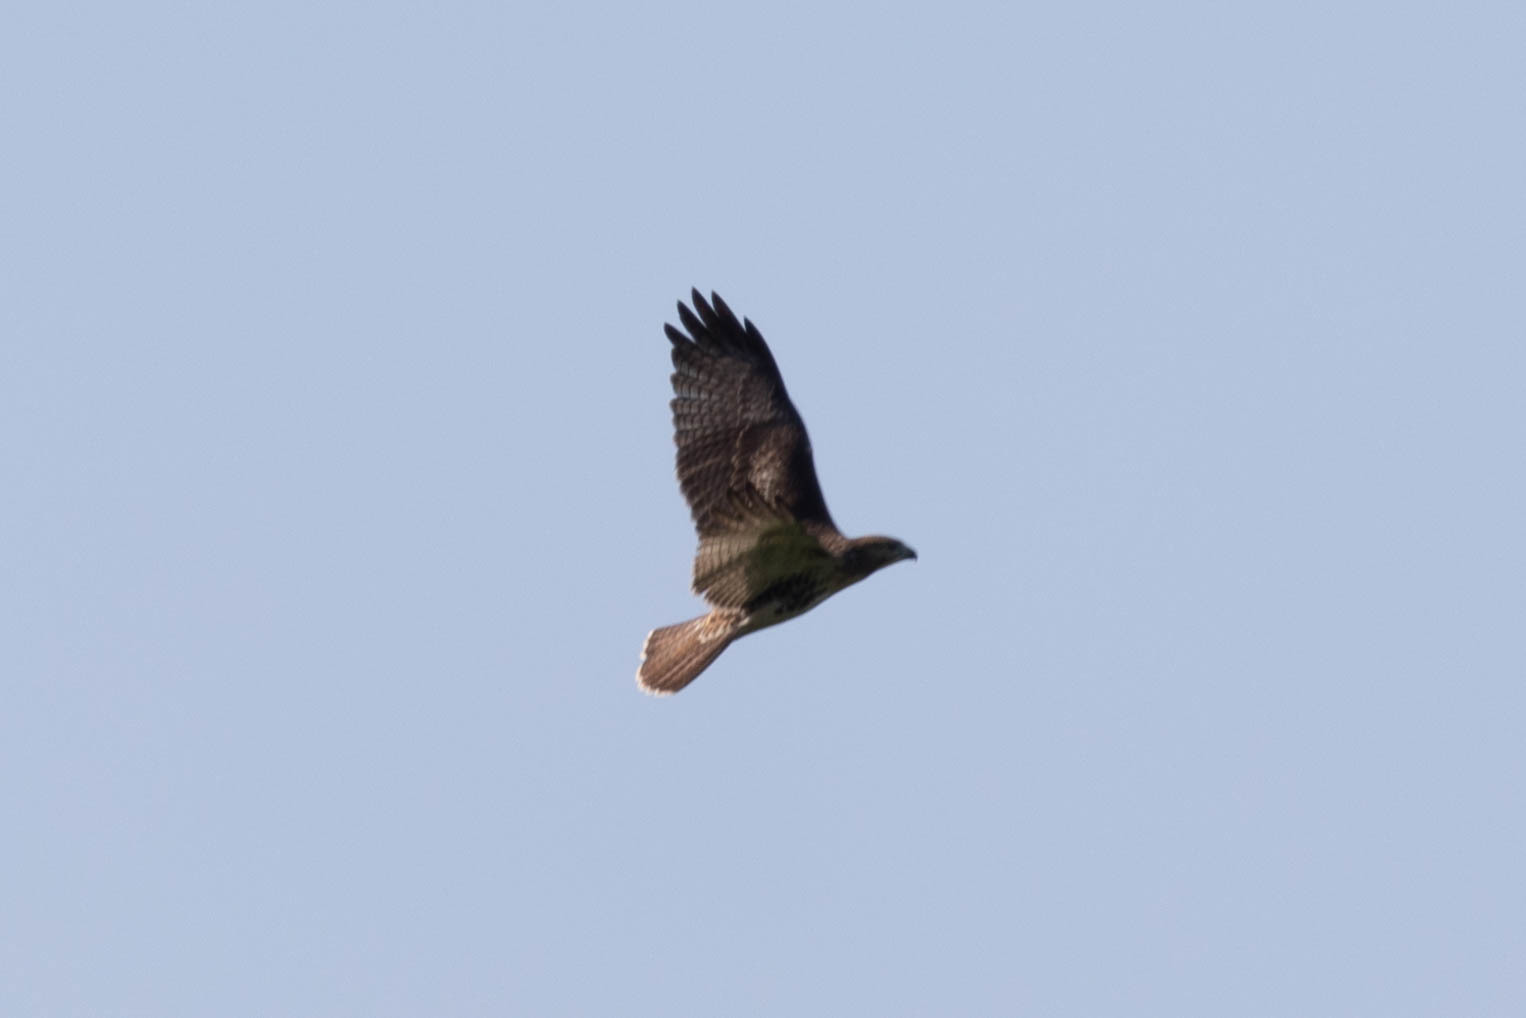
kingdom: Animalia
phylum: Chordata
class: Aves
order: Accipitriformes
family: Accipitridae
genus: Buteo
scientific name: Buteo jamaicensis
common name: Red-tailed hawk
